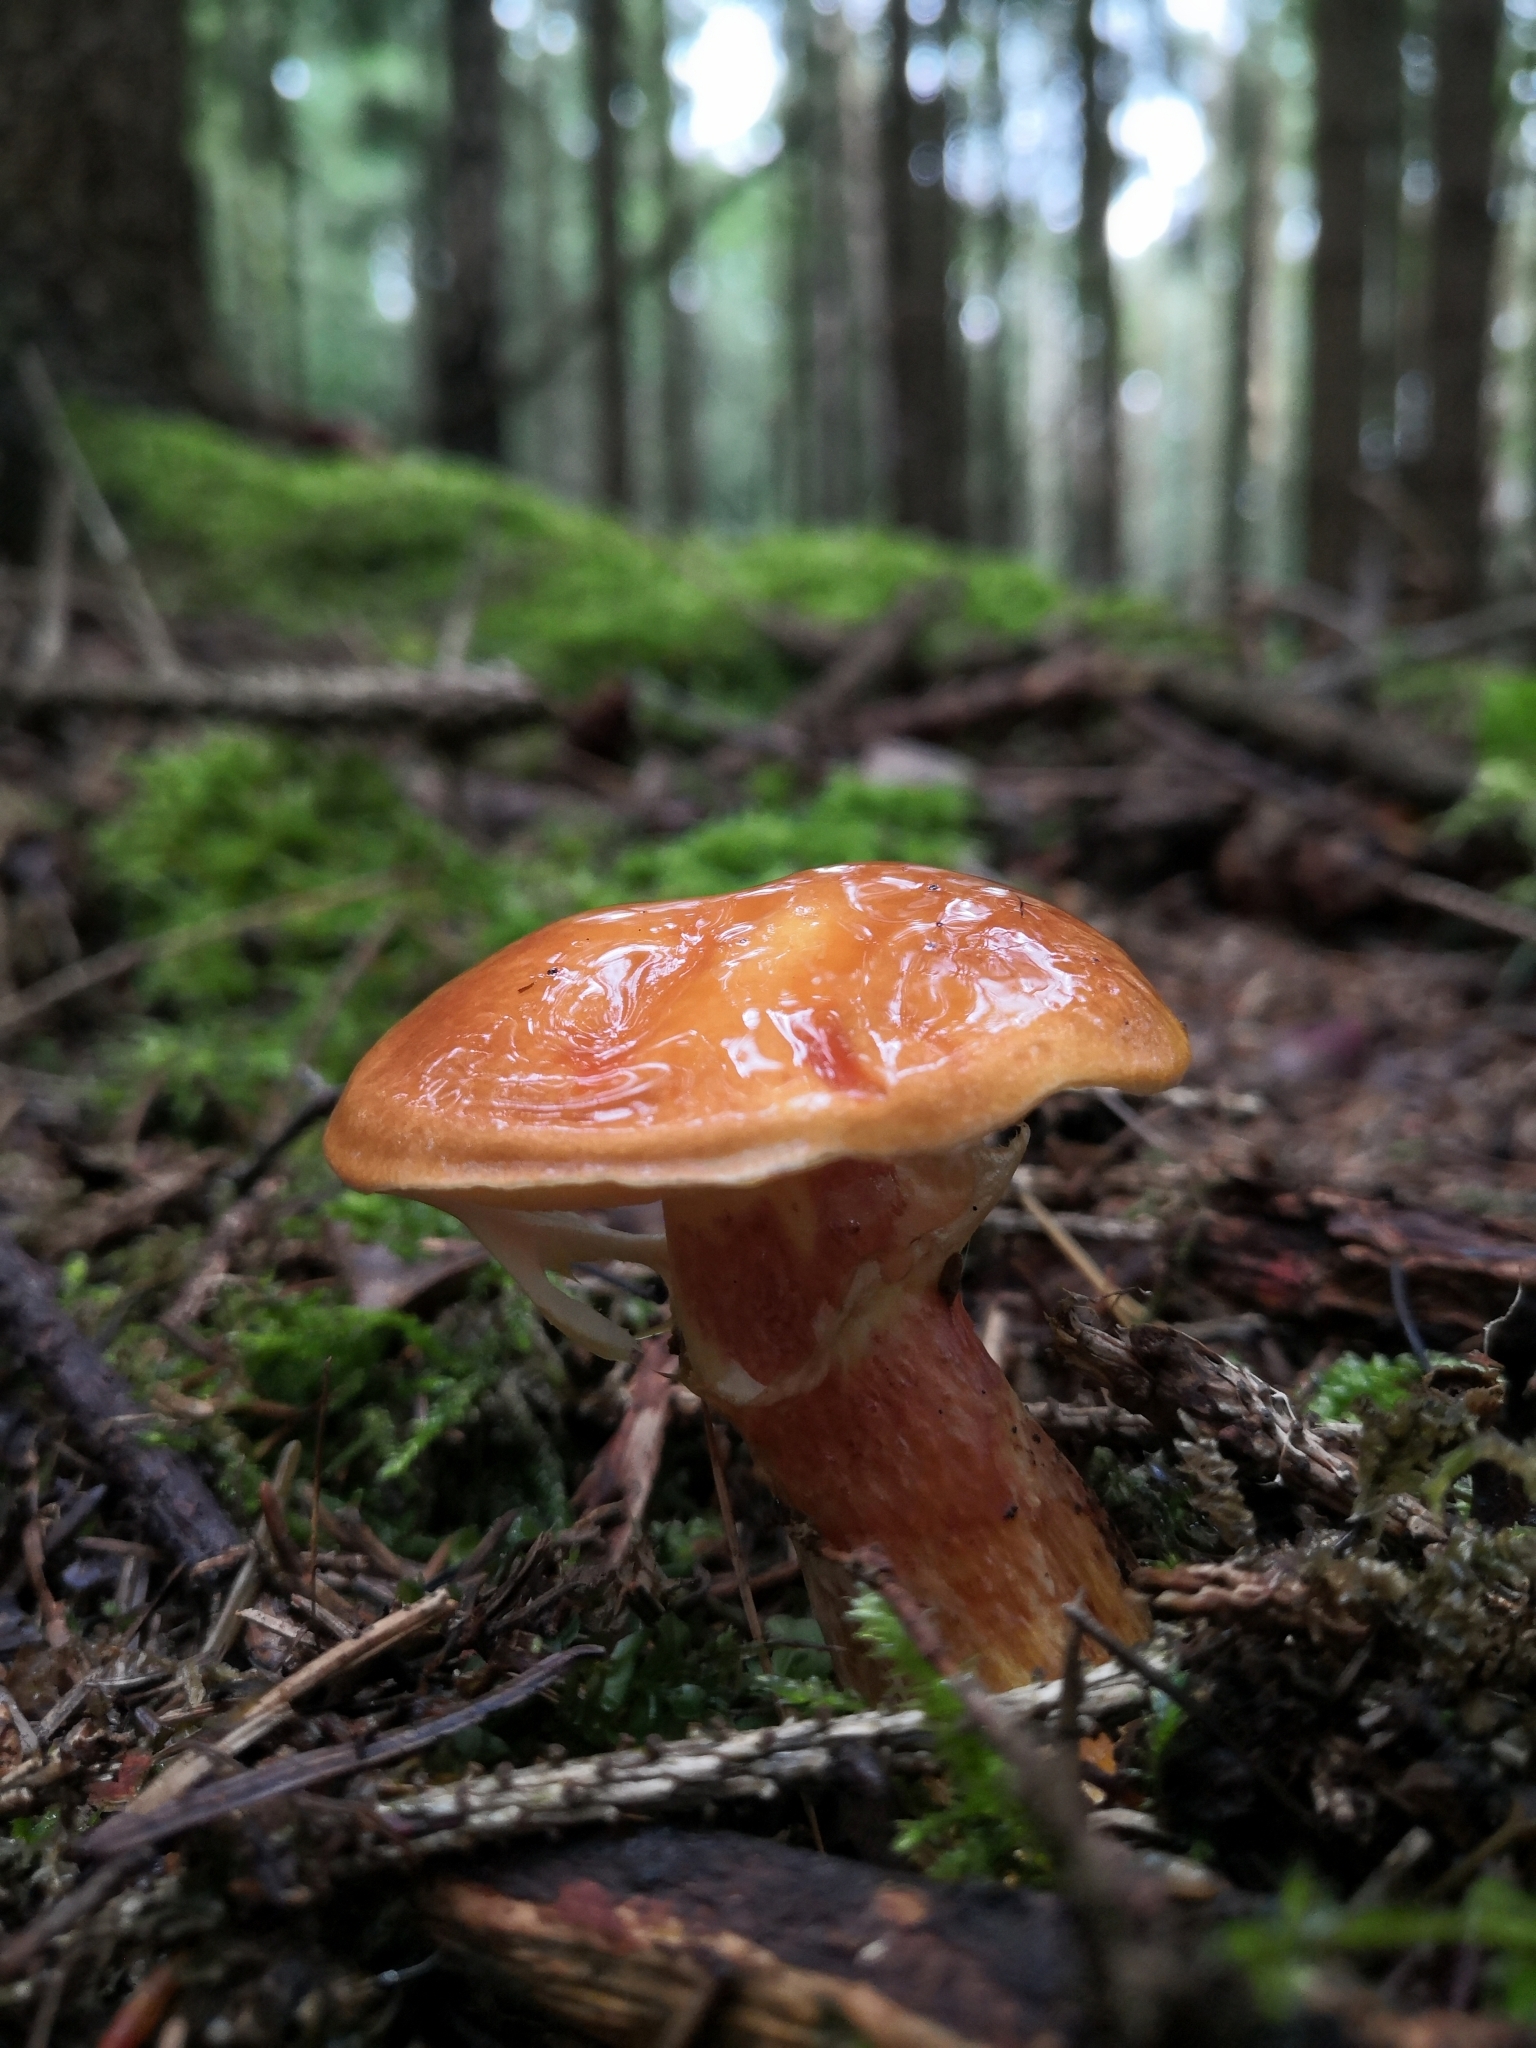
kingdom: Fungi
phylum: Basidiomycota
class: Agaricomycetes
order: Boletales
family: Suillaceae
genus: Suillus
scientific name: Suillus grevillei
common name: Larch bolete
